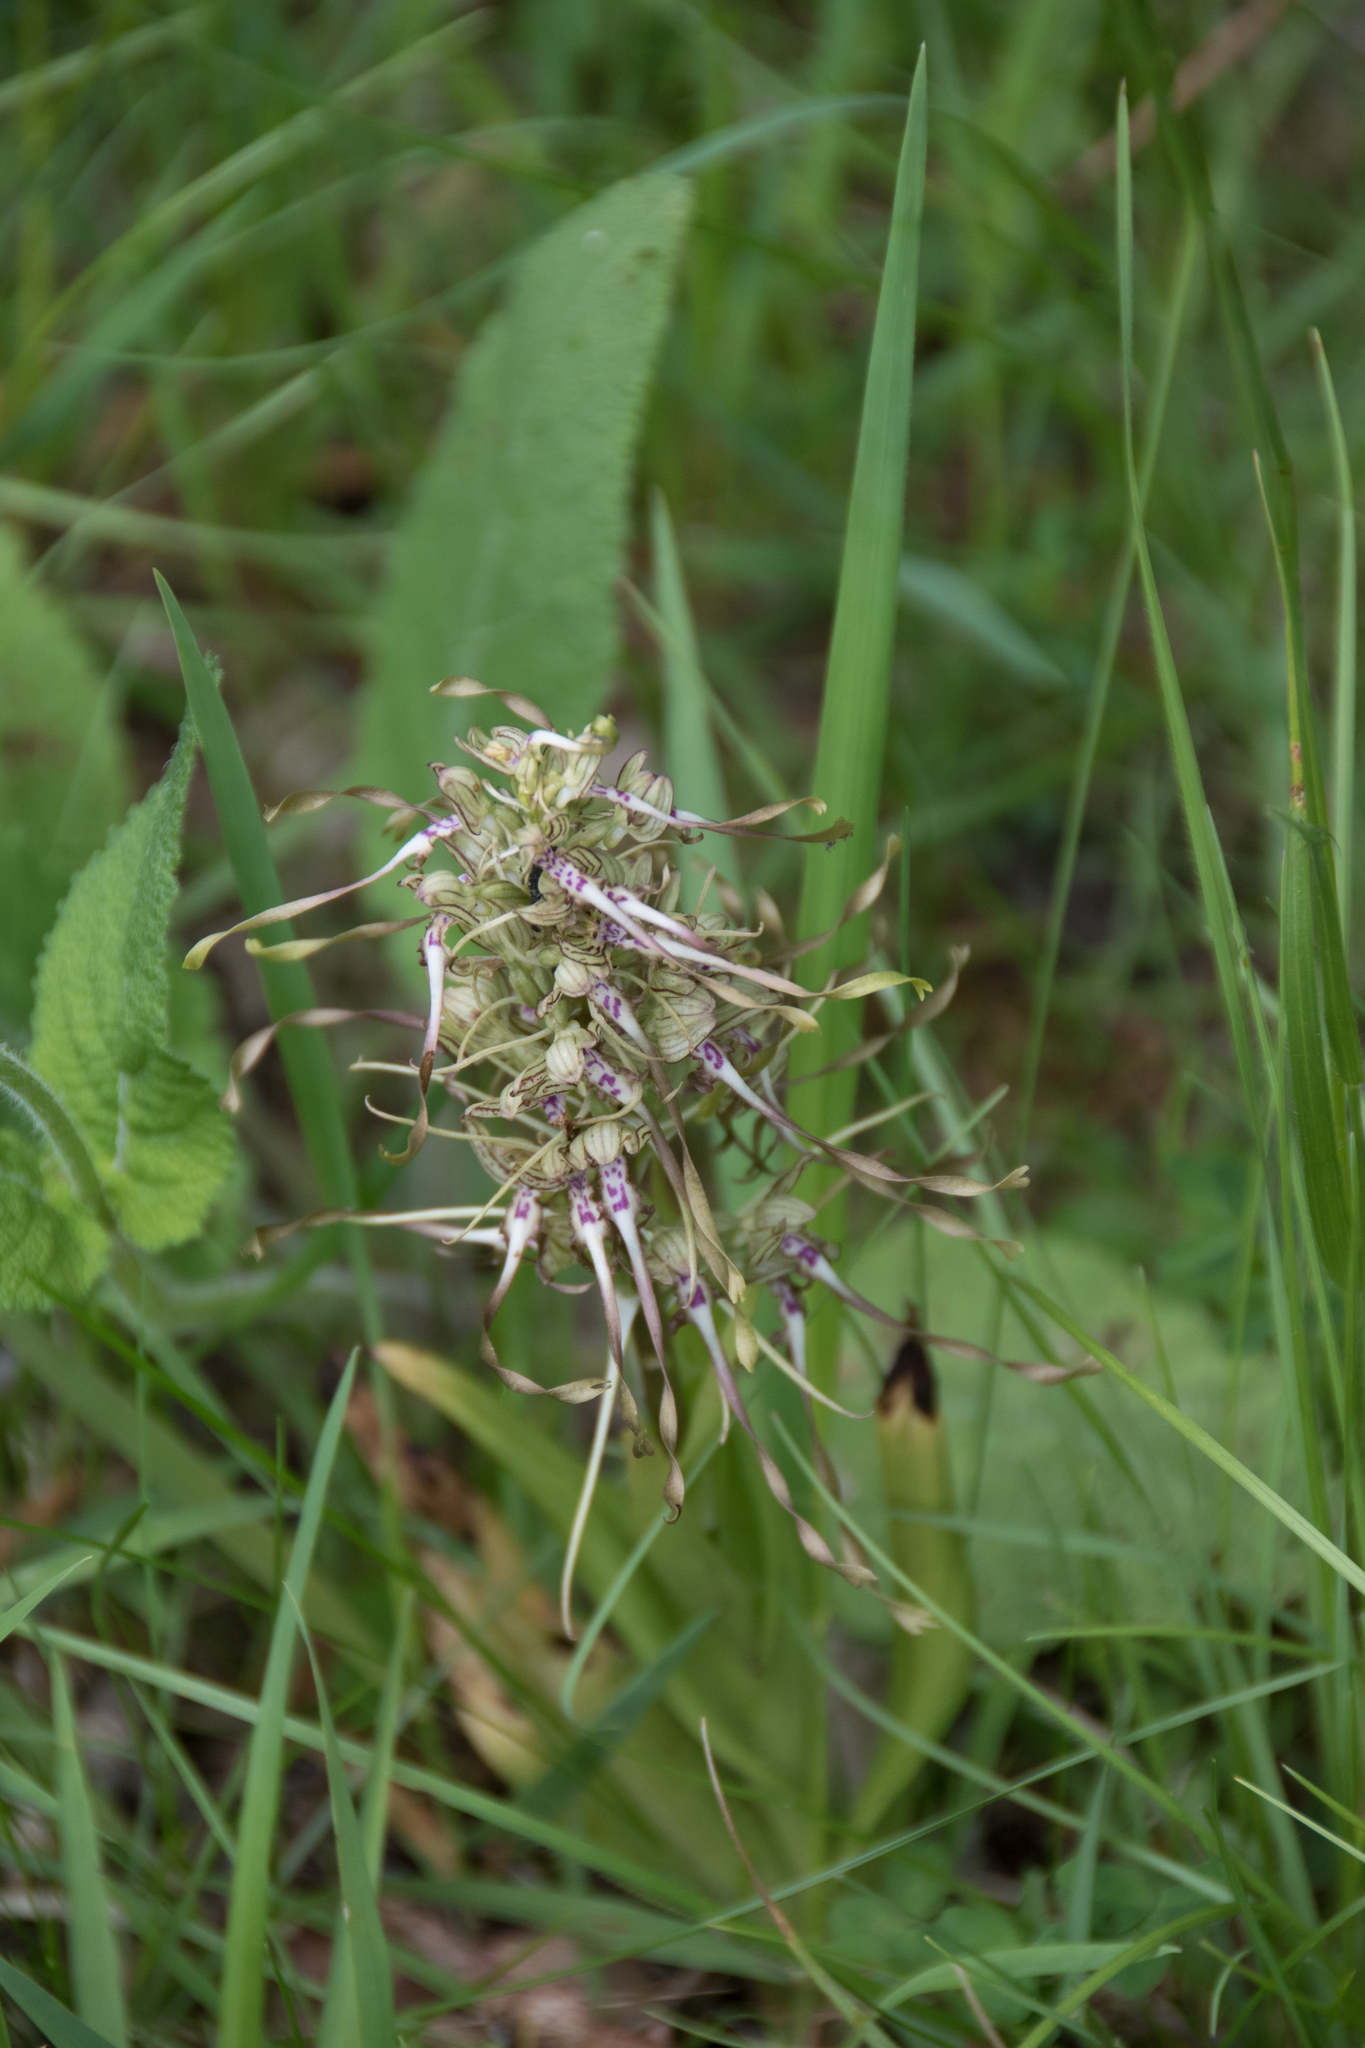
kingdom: Plantae
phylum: Tracheophyta
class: Liliopsida
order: Asparagales
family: Orchidaceae
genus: Himantoglossum
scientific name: Himantoglossum hircinum
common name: Lizard orchid
